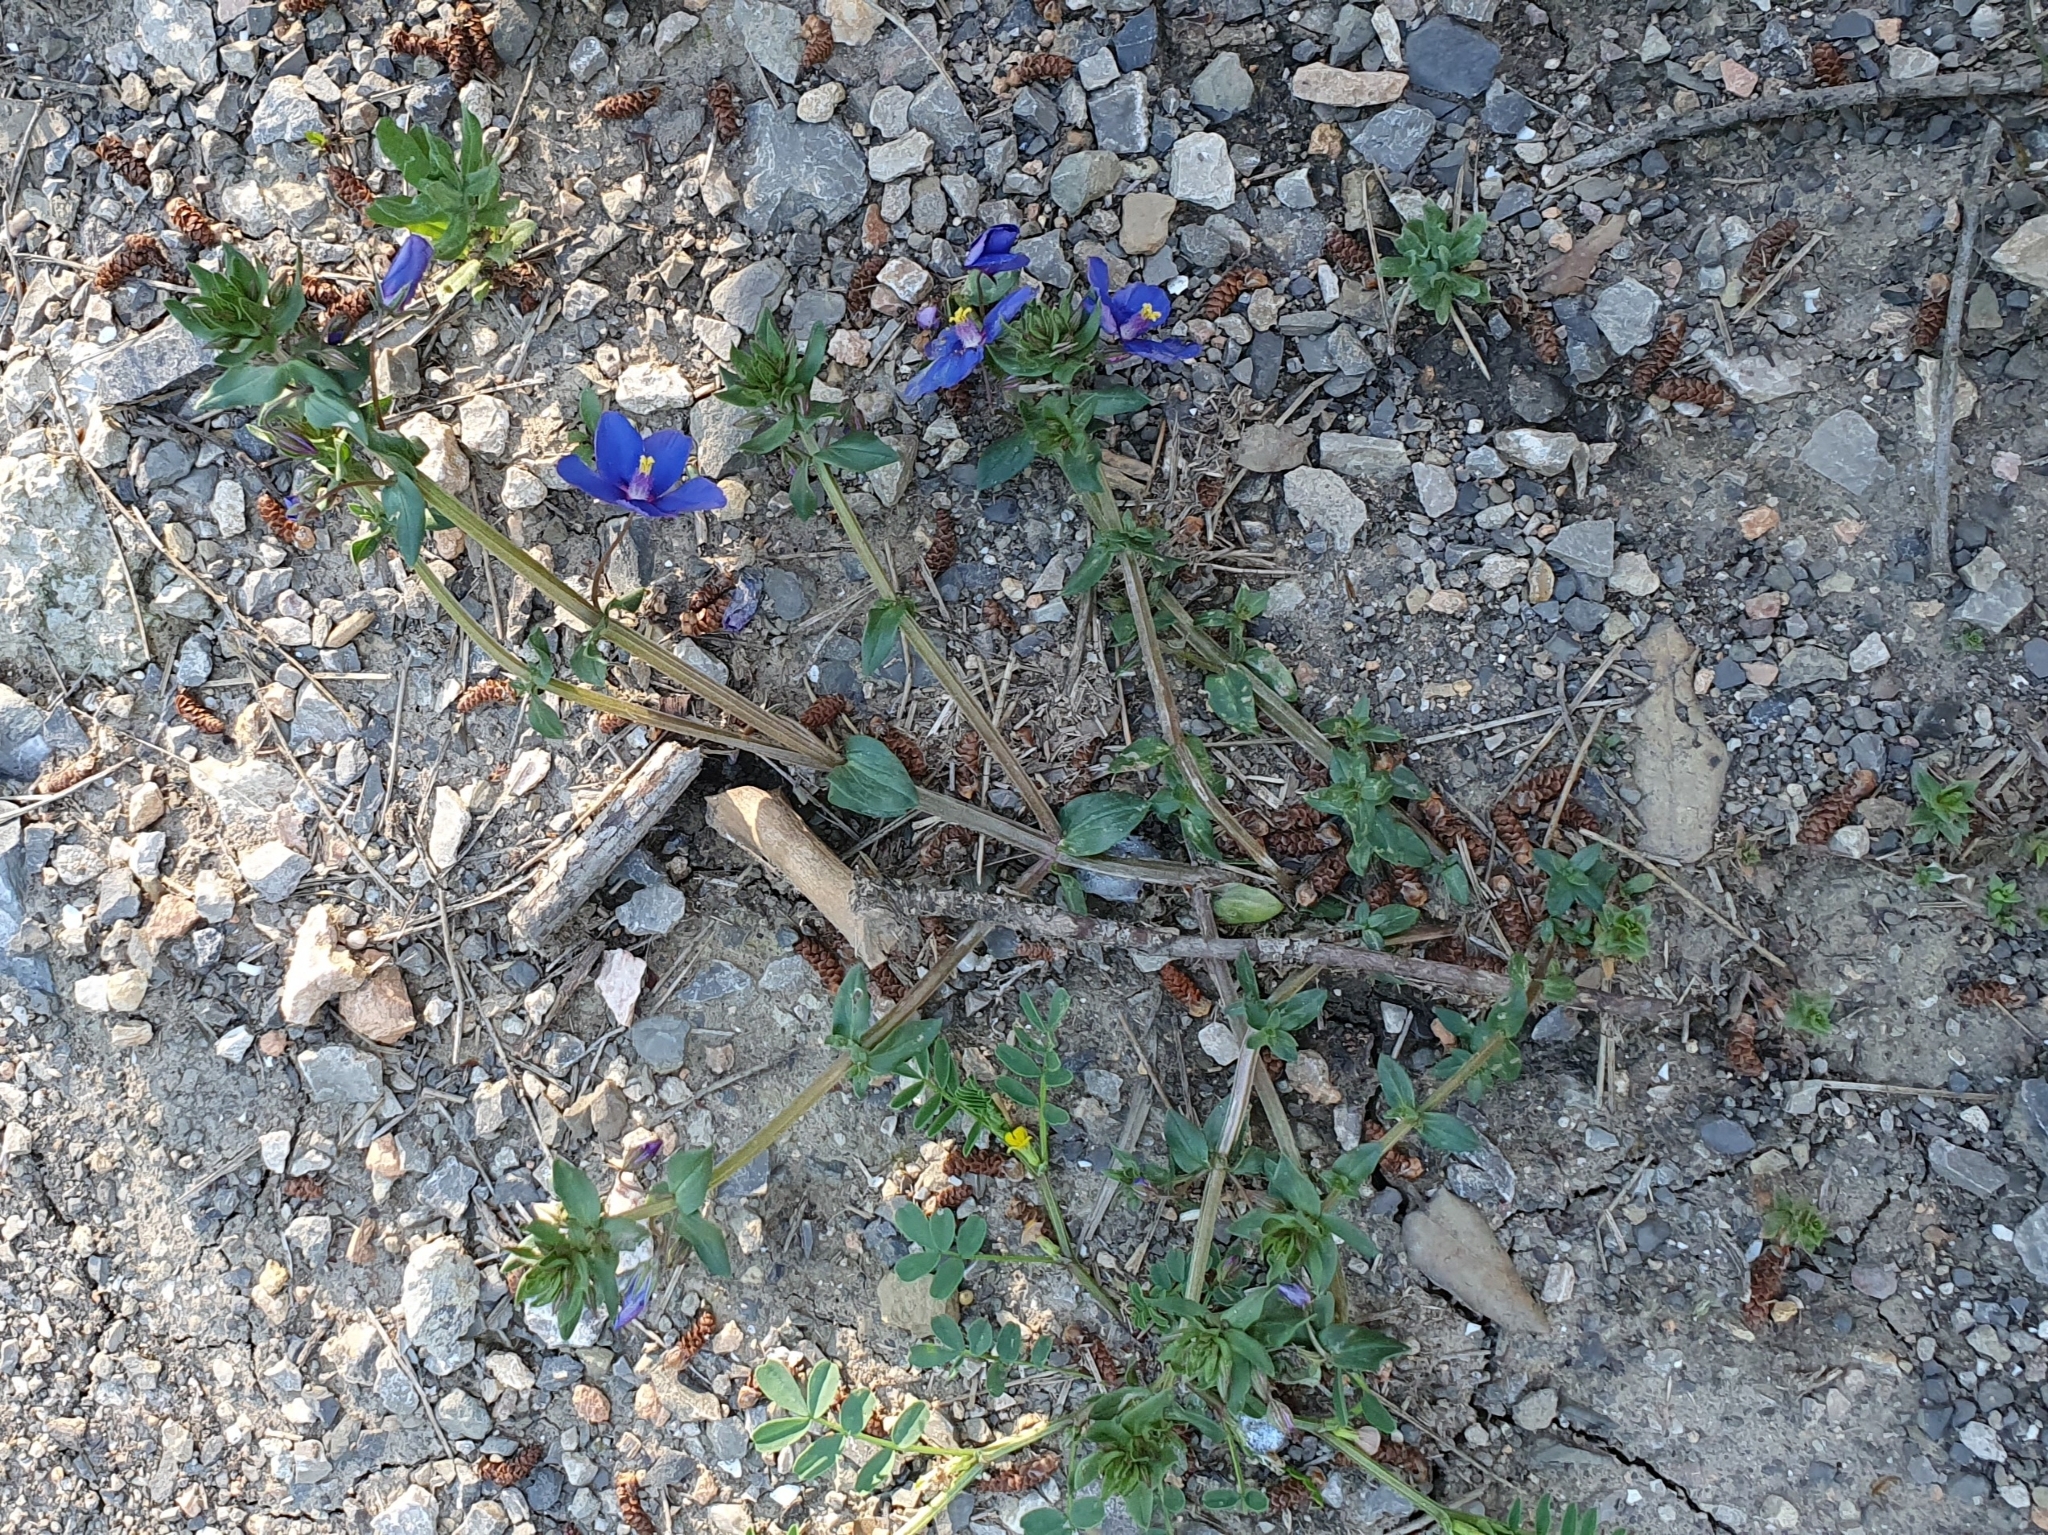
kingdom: Plantae
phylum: Tracheophyta
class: Magnoliopsida
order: Ericales
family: Primulaceae
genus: Lysimachia
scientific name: Lysimachia arvensis
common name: Scarlet pimpernel
